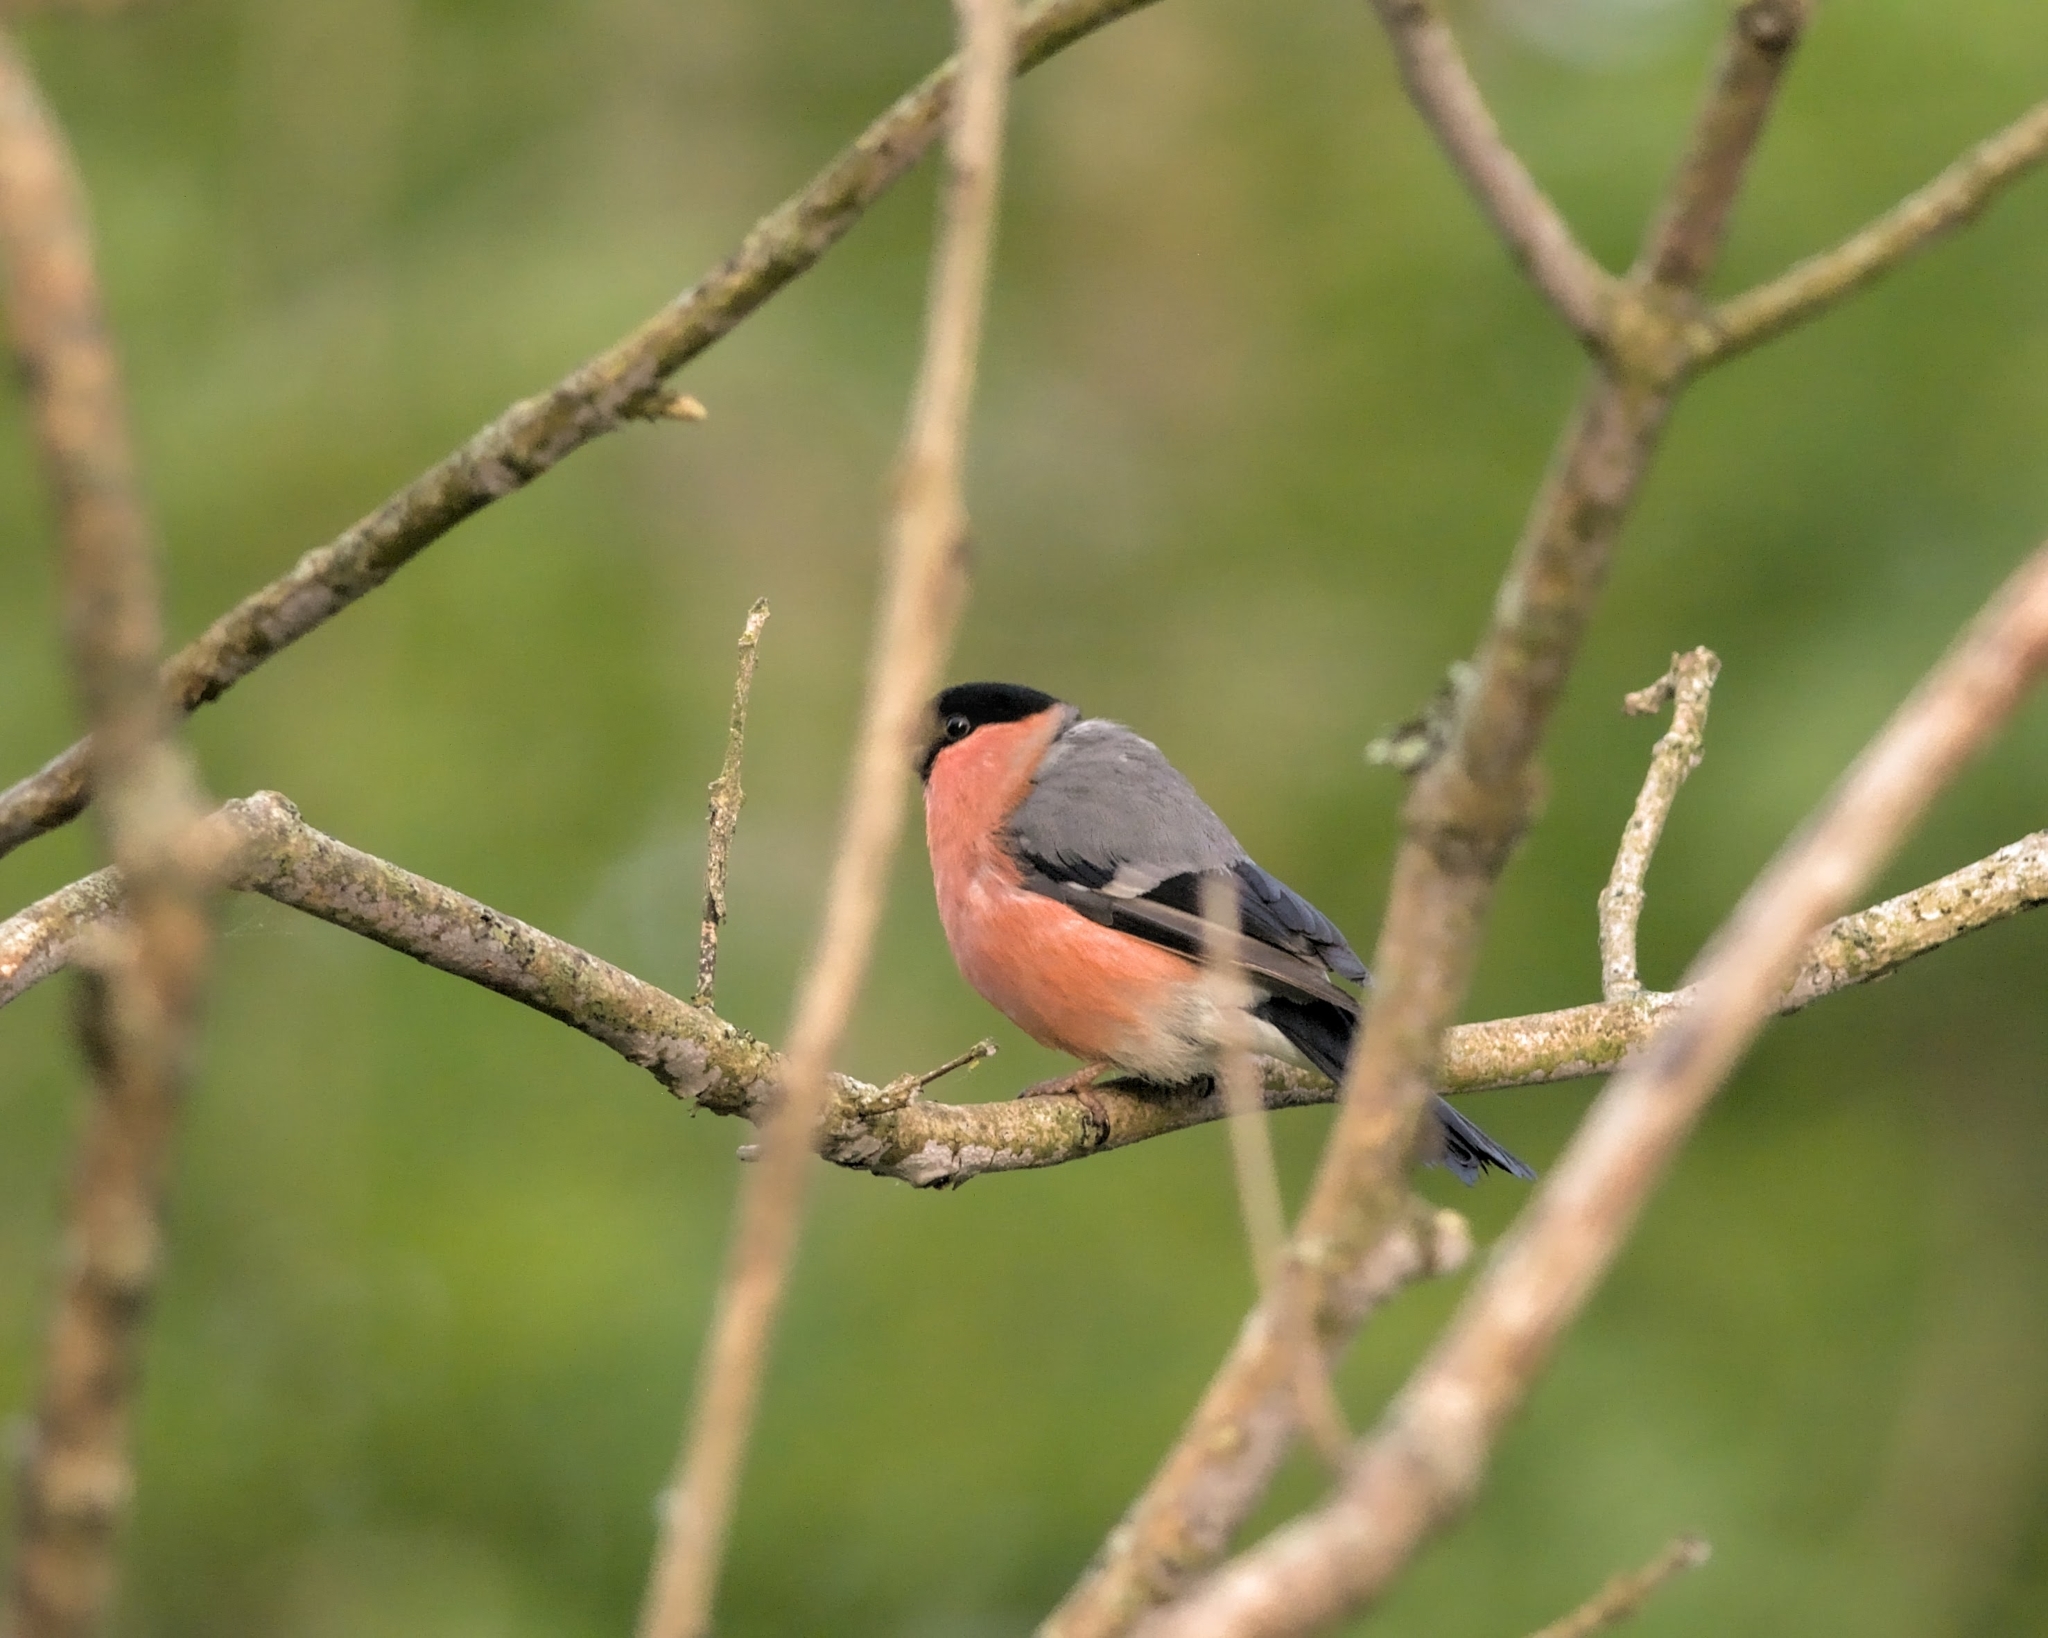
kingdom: Animalia
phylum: Chordata
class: Aves
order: Passeriformes
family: Fringillidae
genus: Pyrrhula
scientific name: Pyrrhula pyrrhula
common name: Eurasian bullfinch
